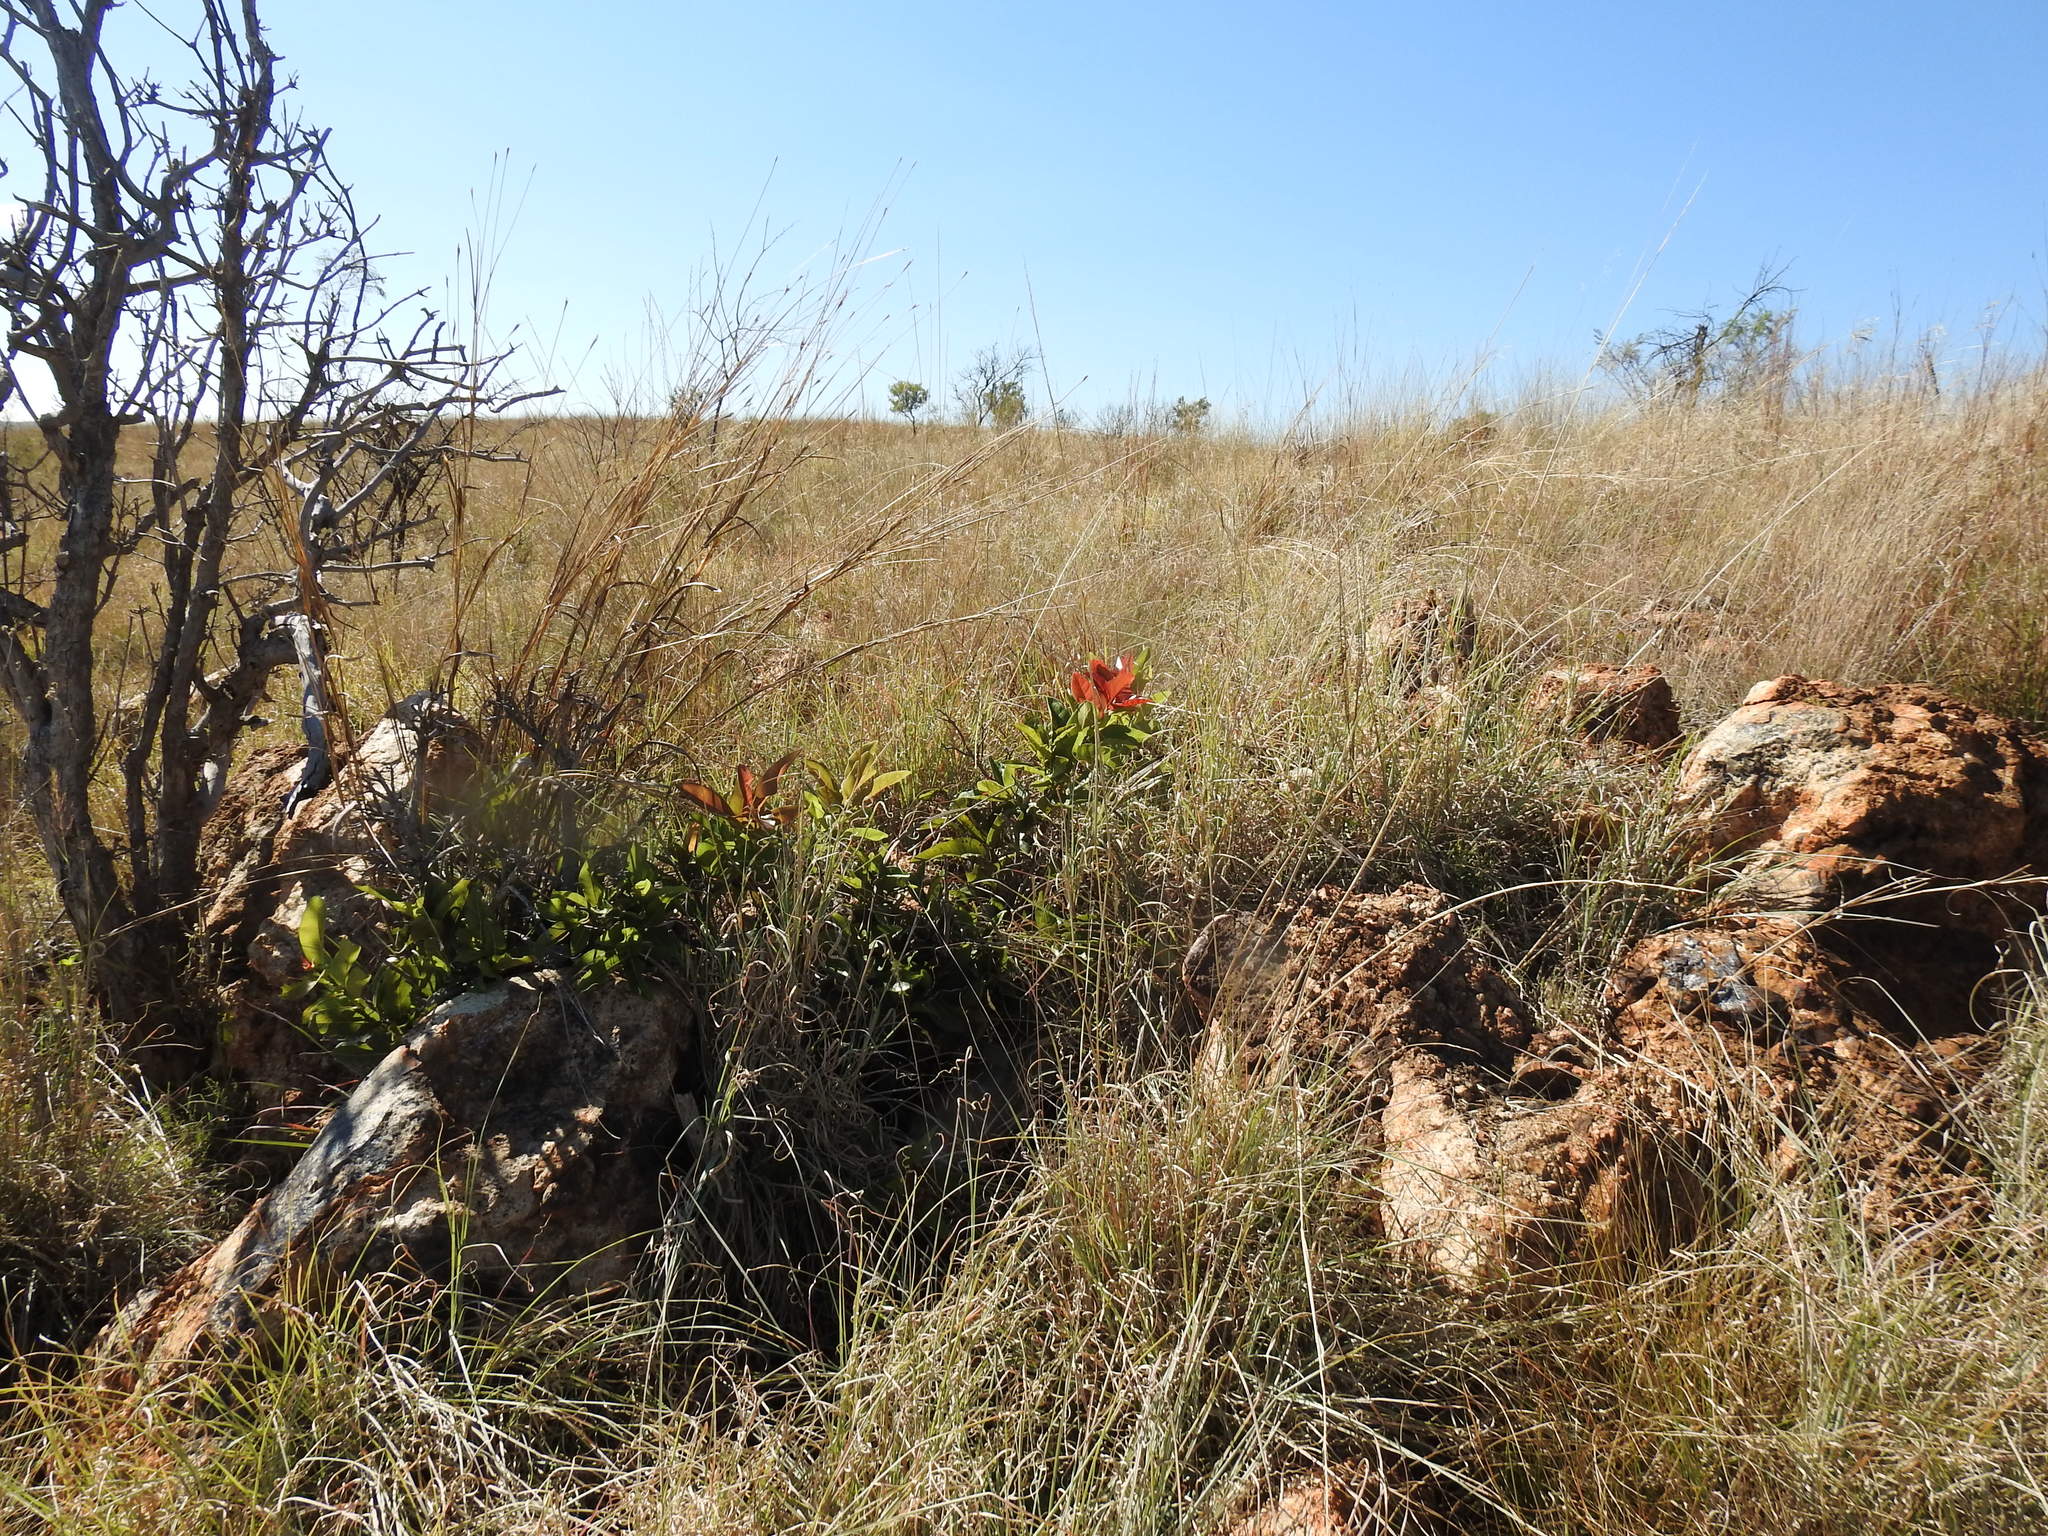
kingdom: Plantae
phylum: Tracheophyta
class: Magnoliopsida
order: Rosales
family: Moraceae
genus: Ficus
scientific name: Ficus ingens
